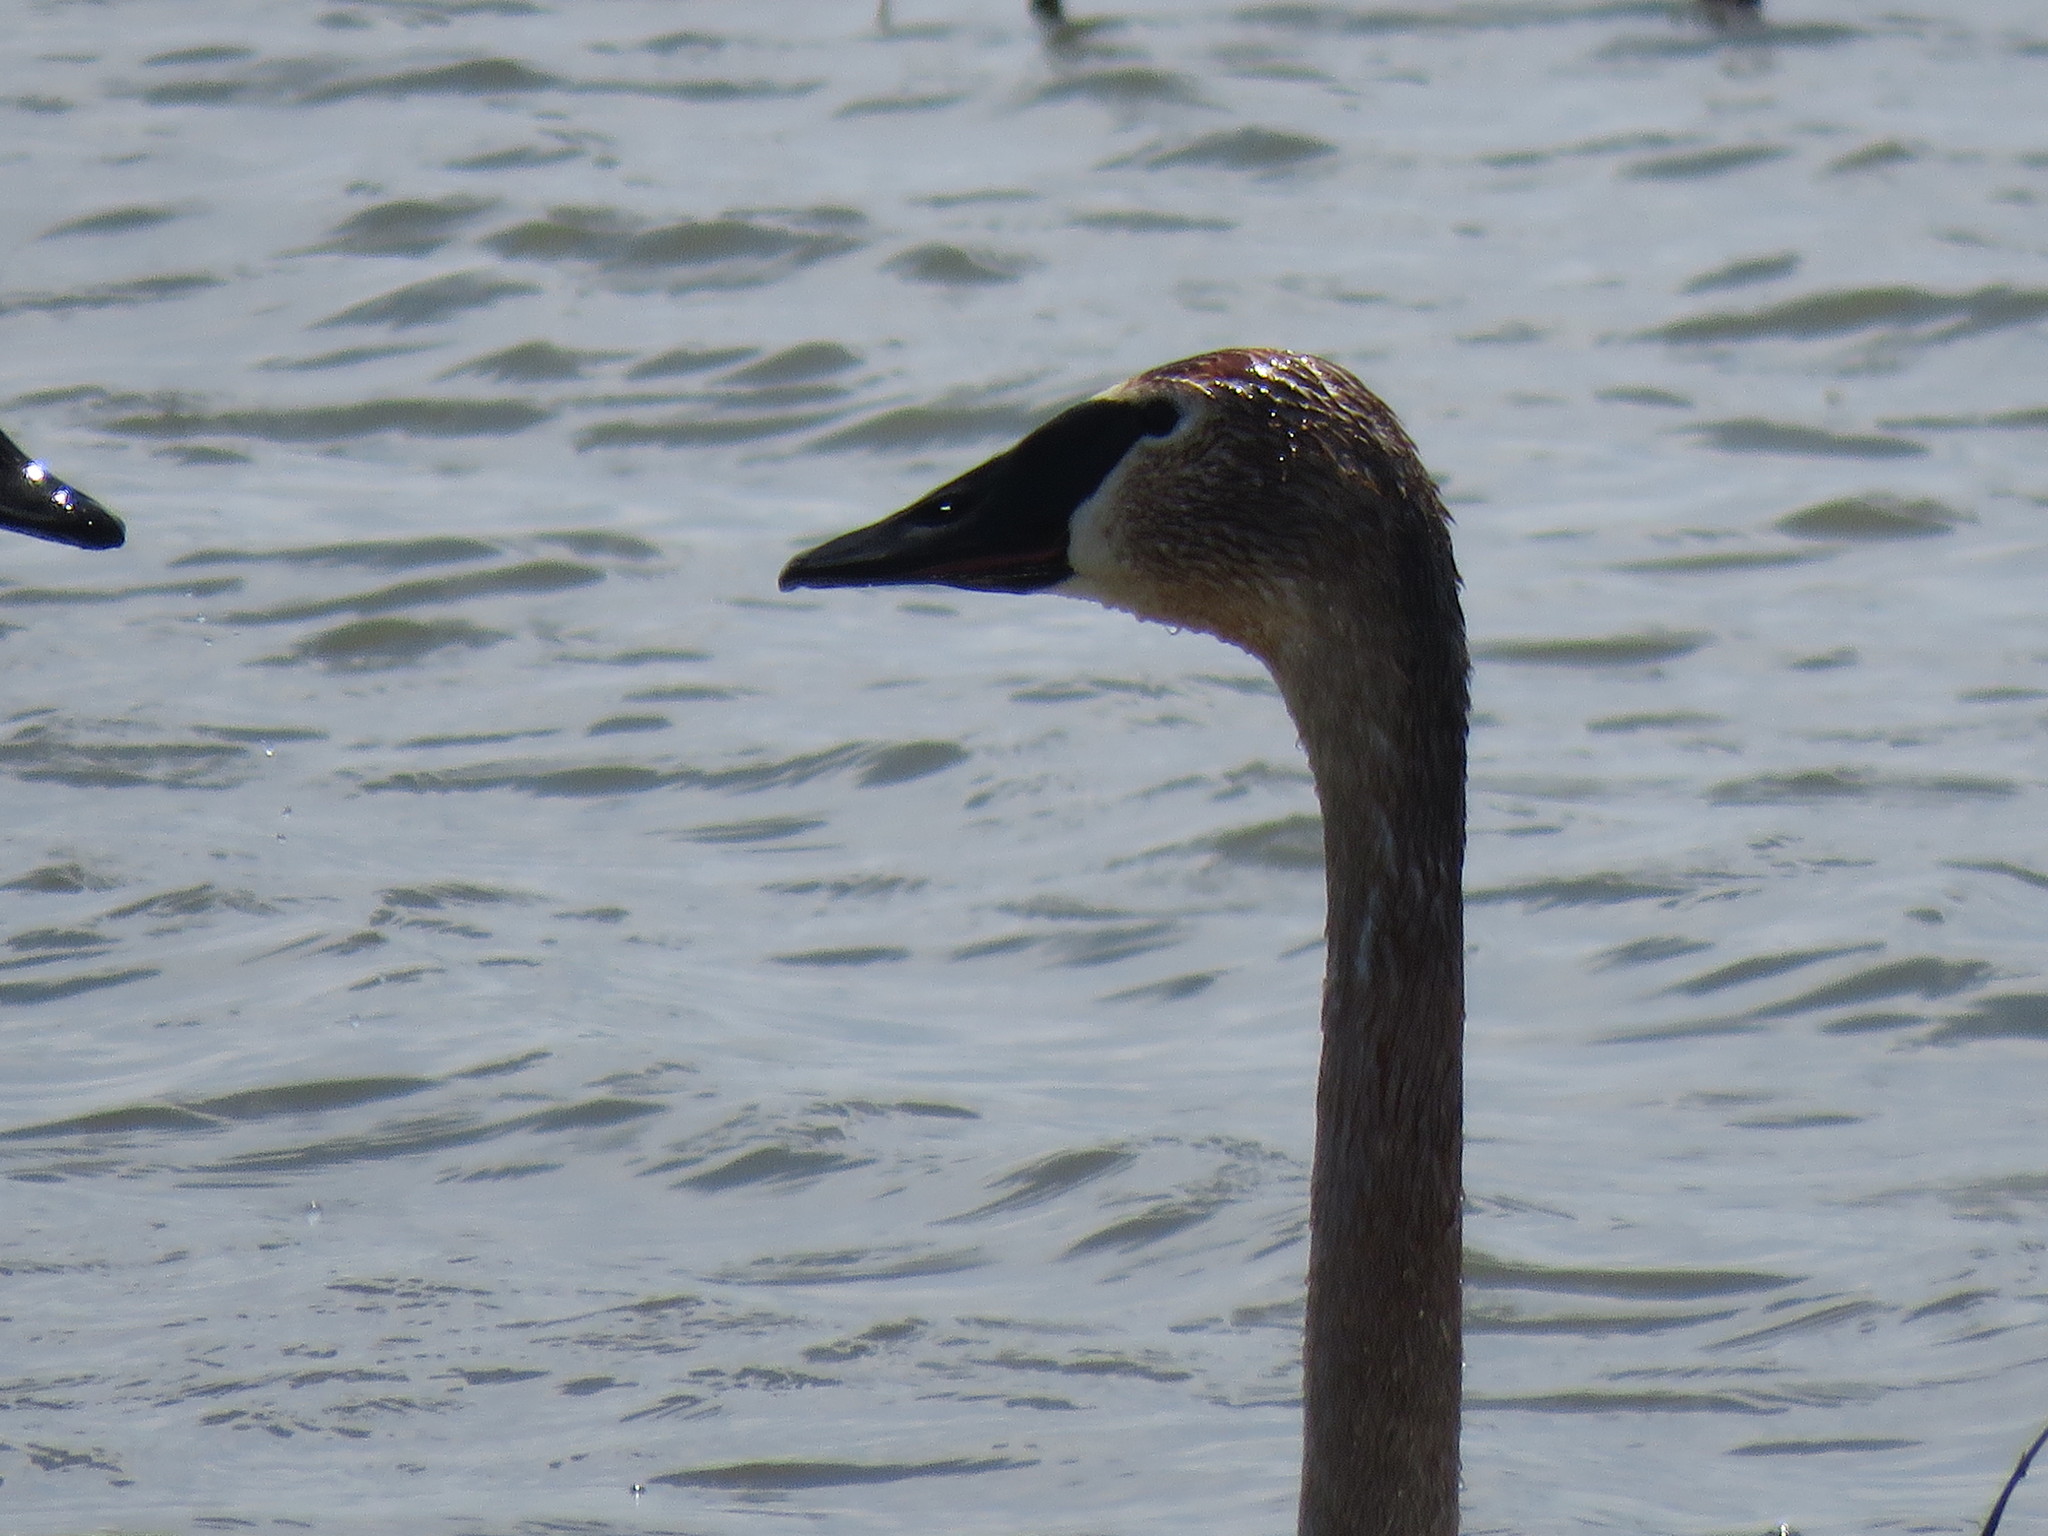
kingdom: Animalia
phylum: Chordata
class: Aves
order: Anseriformes
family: Anatidae
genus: Cygnus
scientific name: Cygnus buccinator
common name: Trumpeter swan
